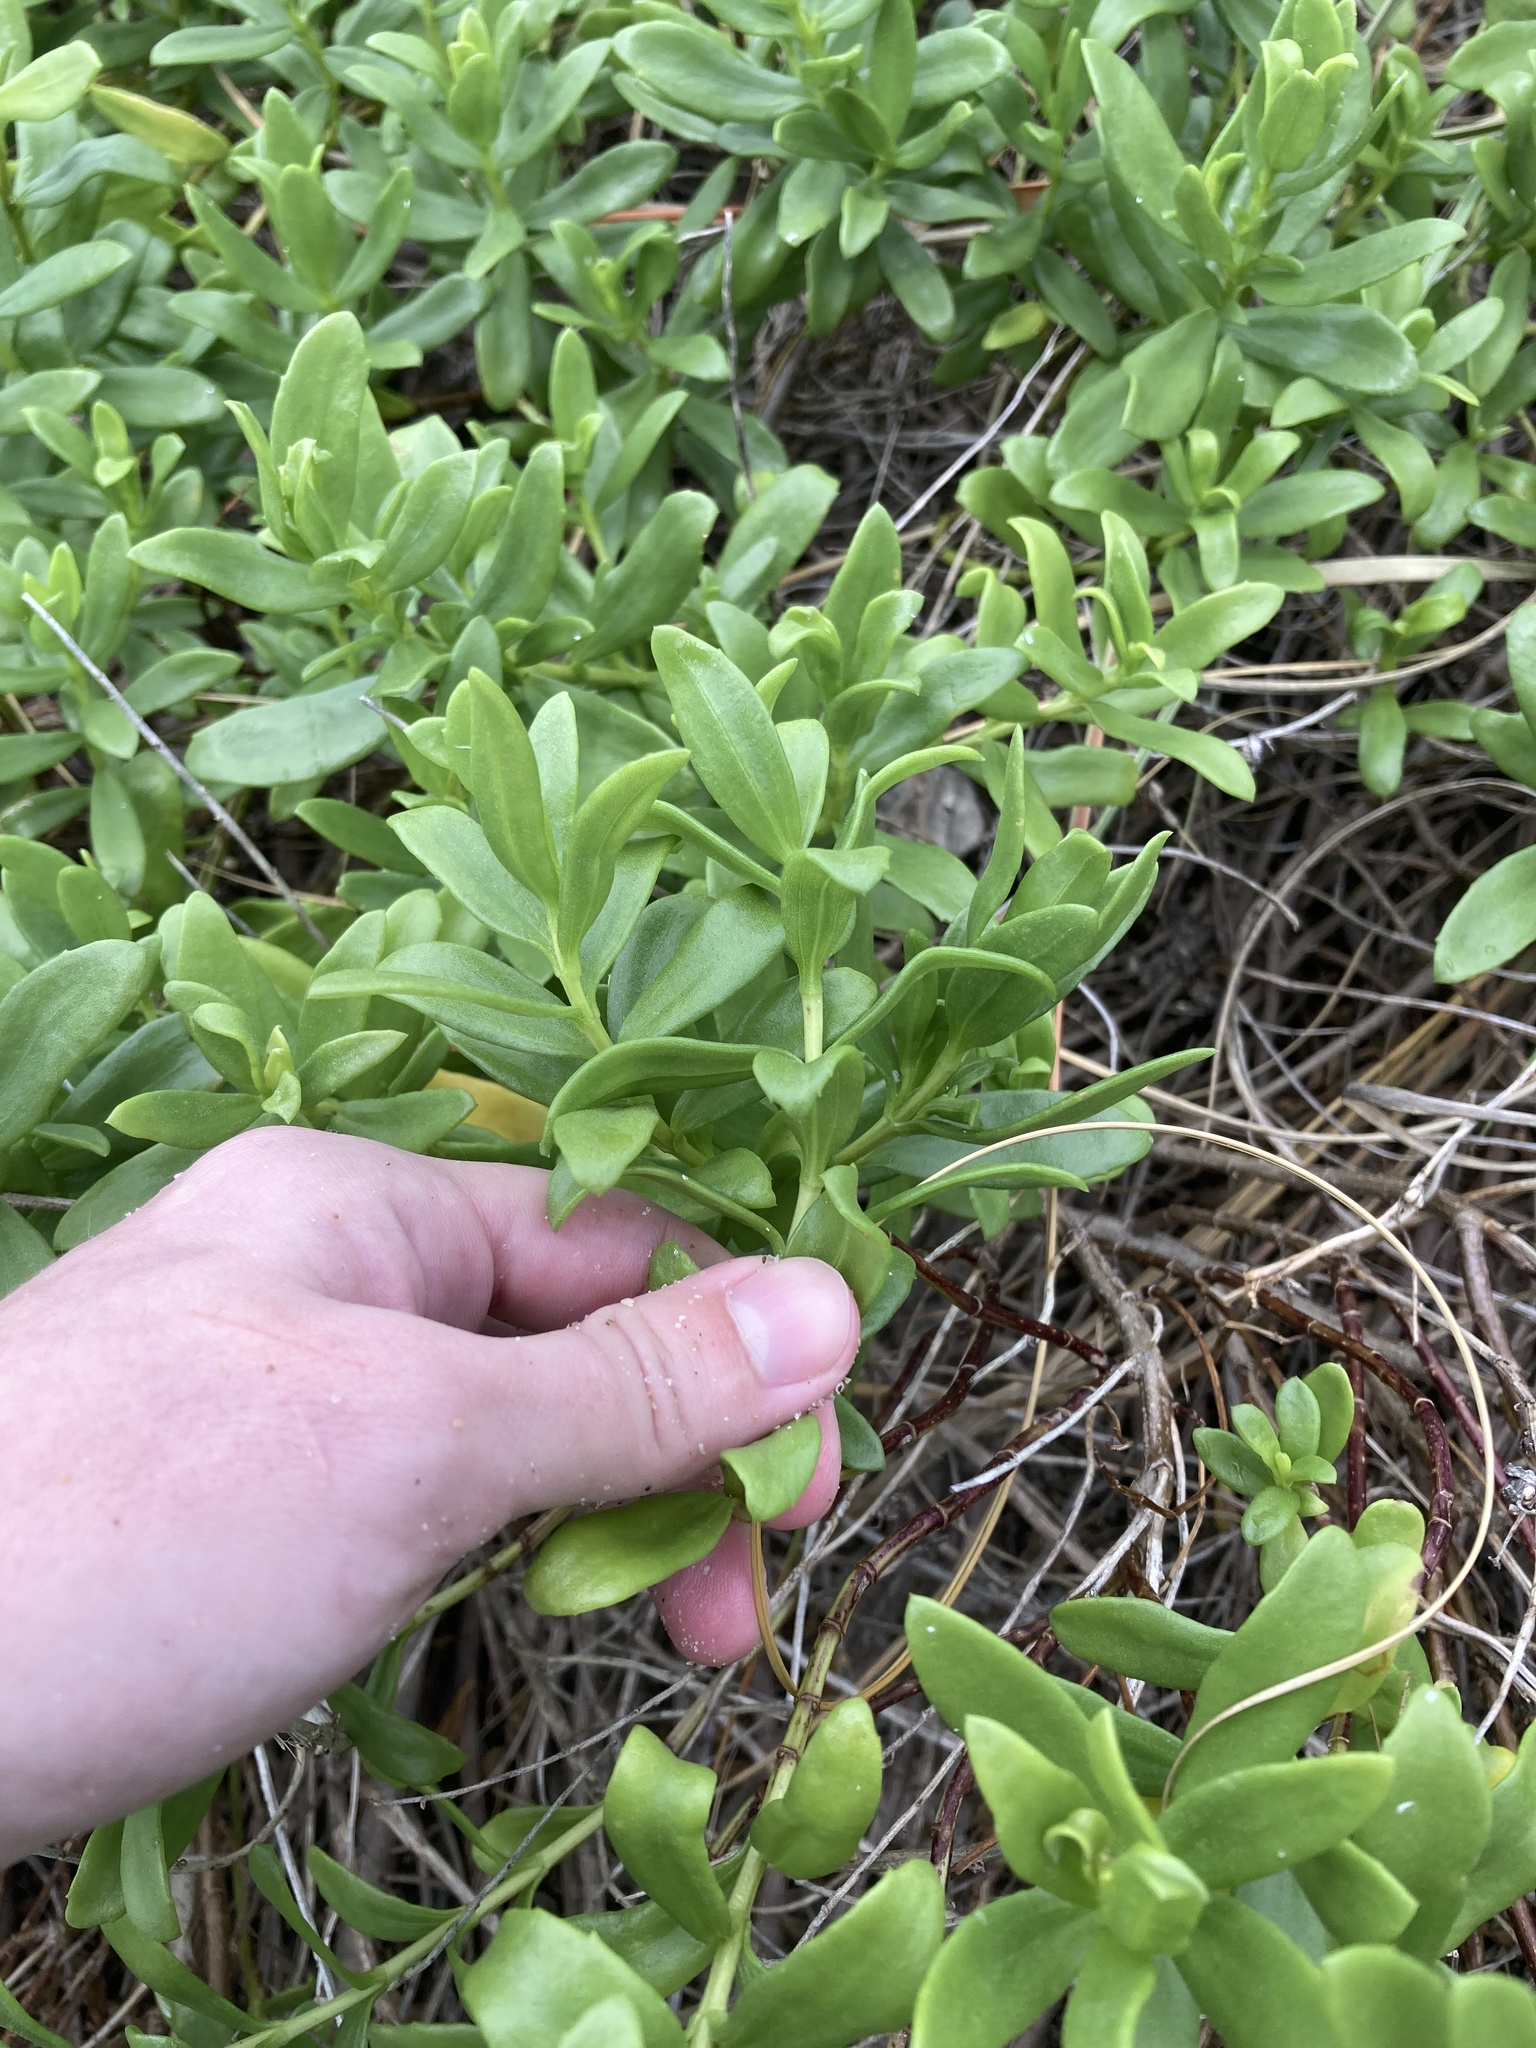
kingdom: Plantae
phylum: Tracheophyta
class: Magnoliopsida
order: Asterales
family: Asteraceae
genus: Iva
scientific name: Iva imbricata
